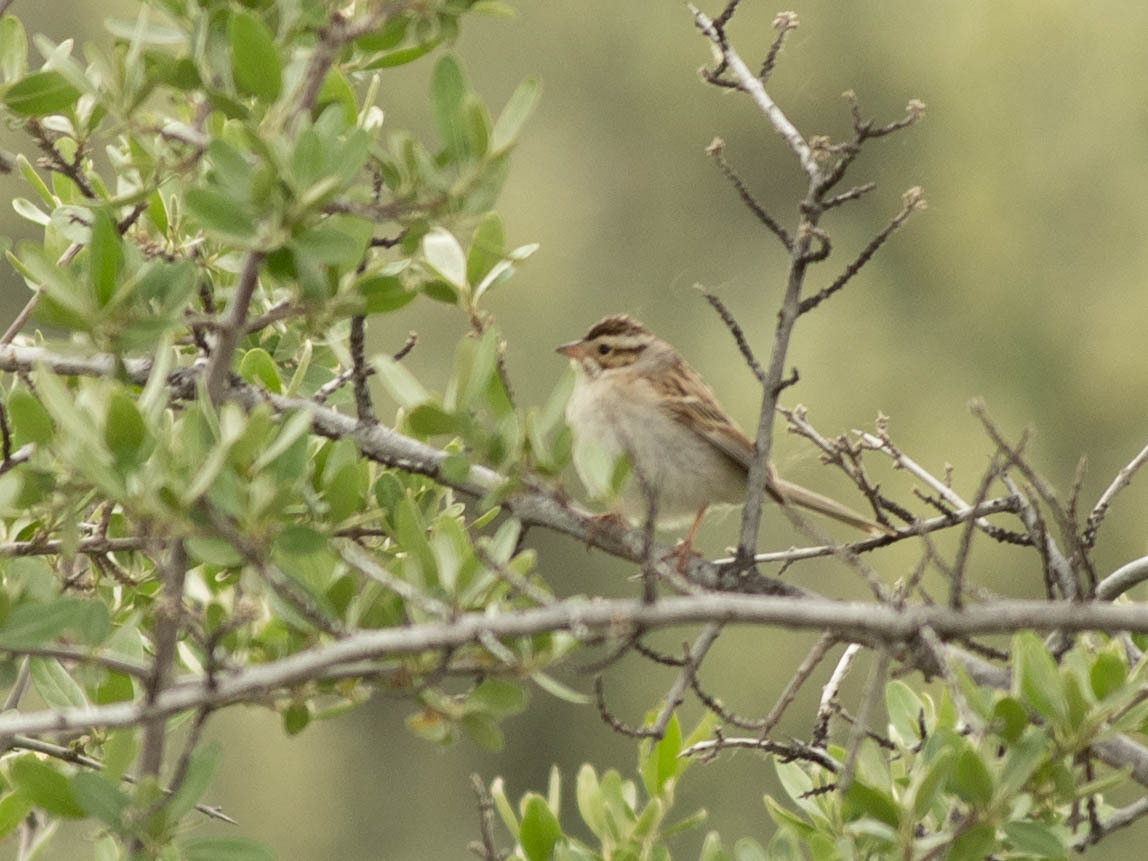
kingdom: Animalia
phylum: Chordata
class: Aves
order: Passeriformes
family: Passerellidae
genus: Spizella
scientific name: Spizella pallida
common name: Clay-colored sparrow
